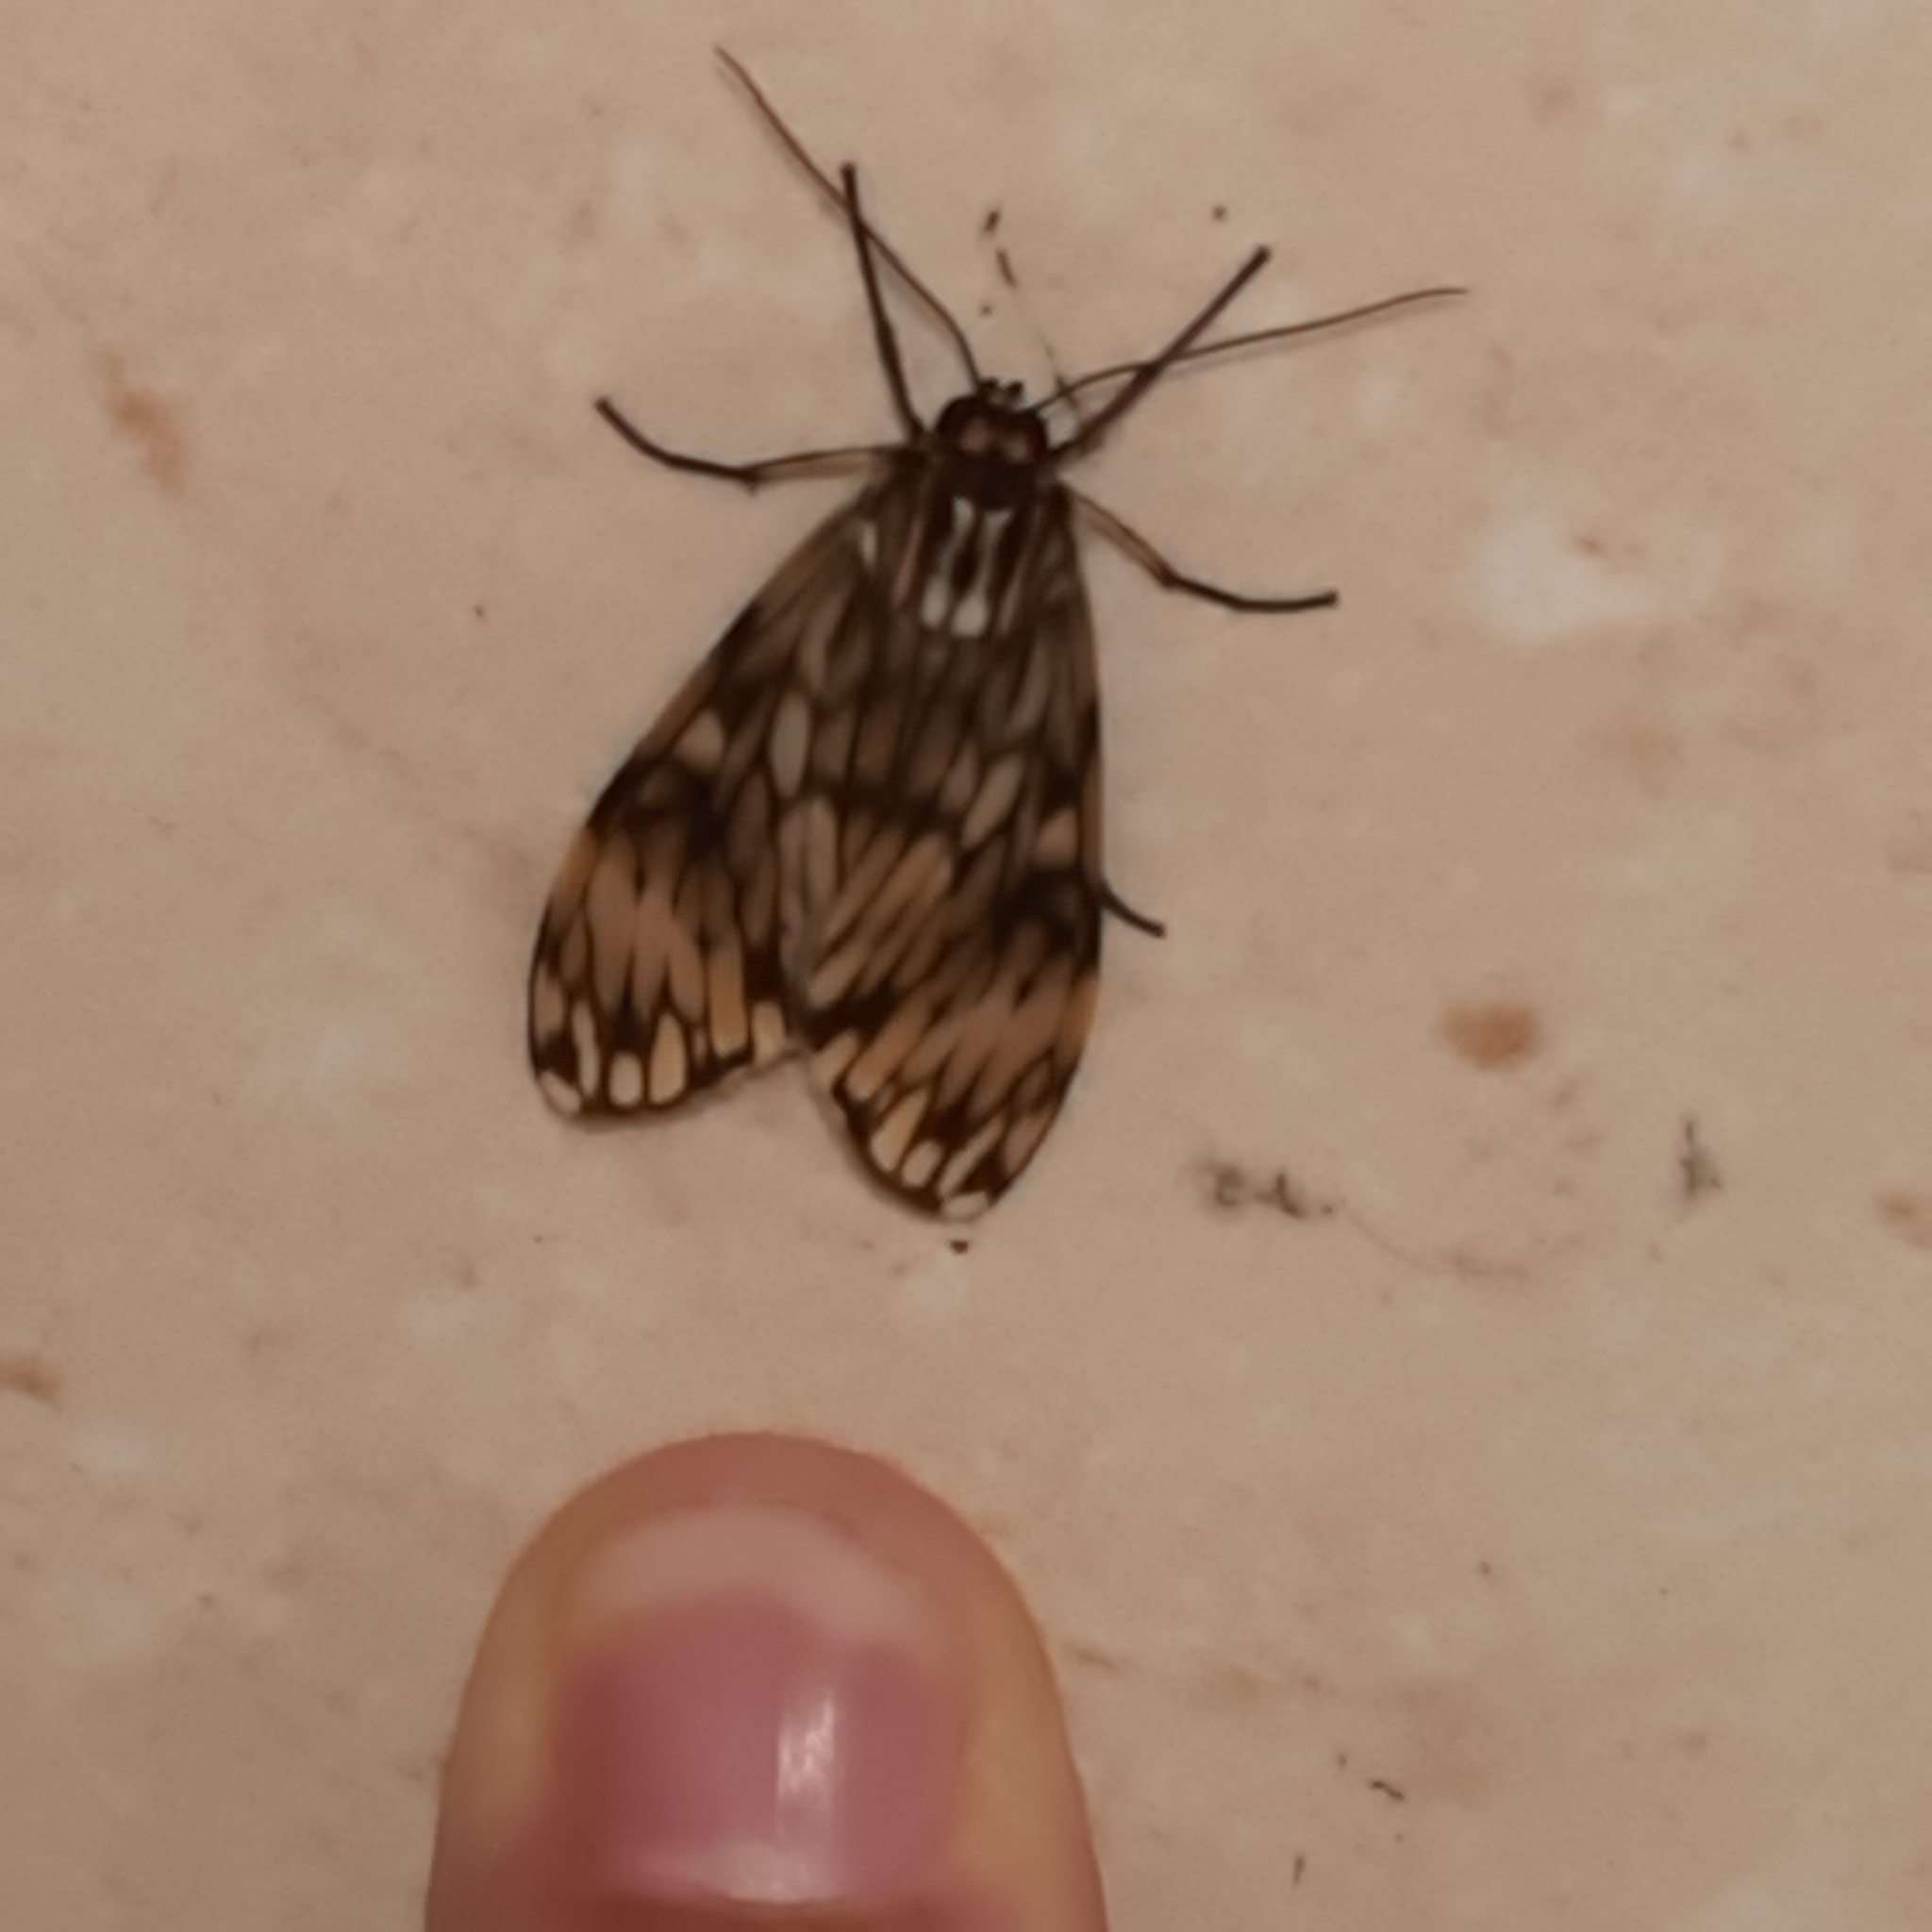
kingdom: Animalia
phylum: Arthropoda
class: Insecta
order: Lepidoptera
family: Erebidae
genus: Theages
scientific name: Theages flavicaput
